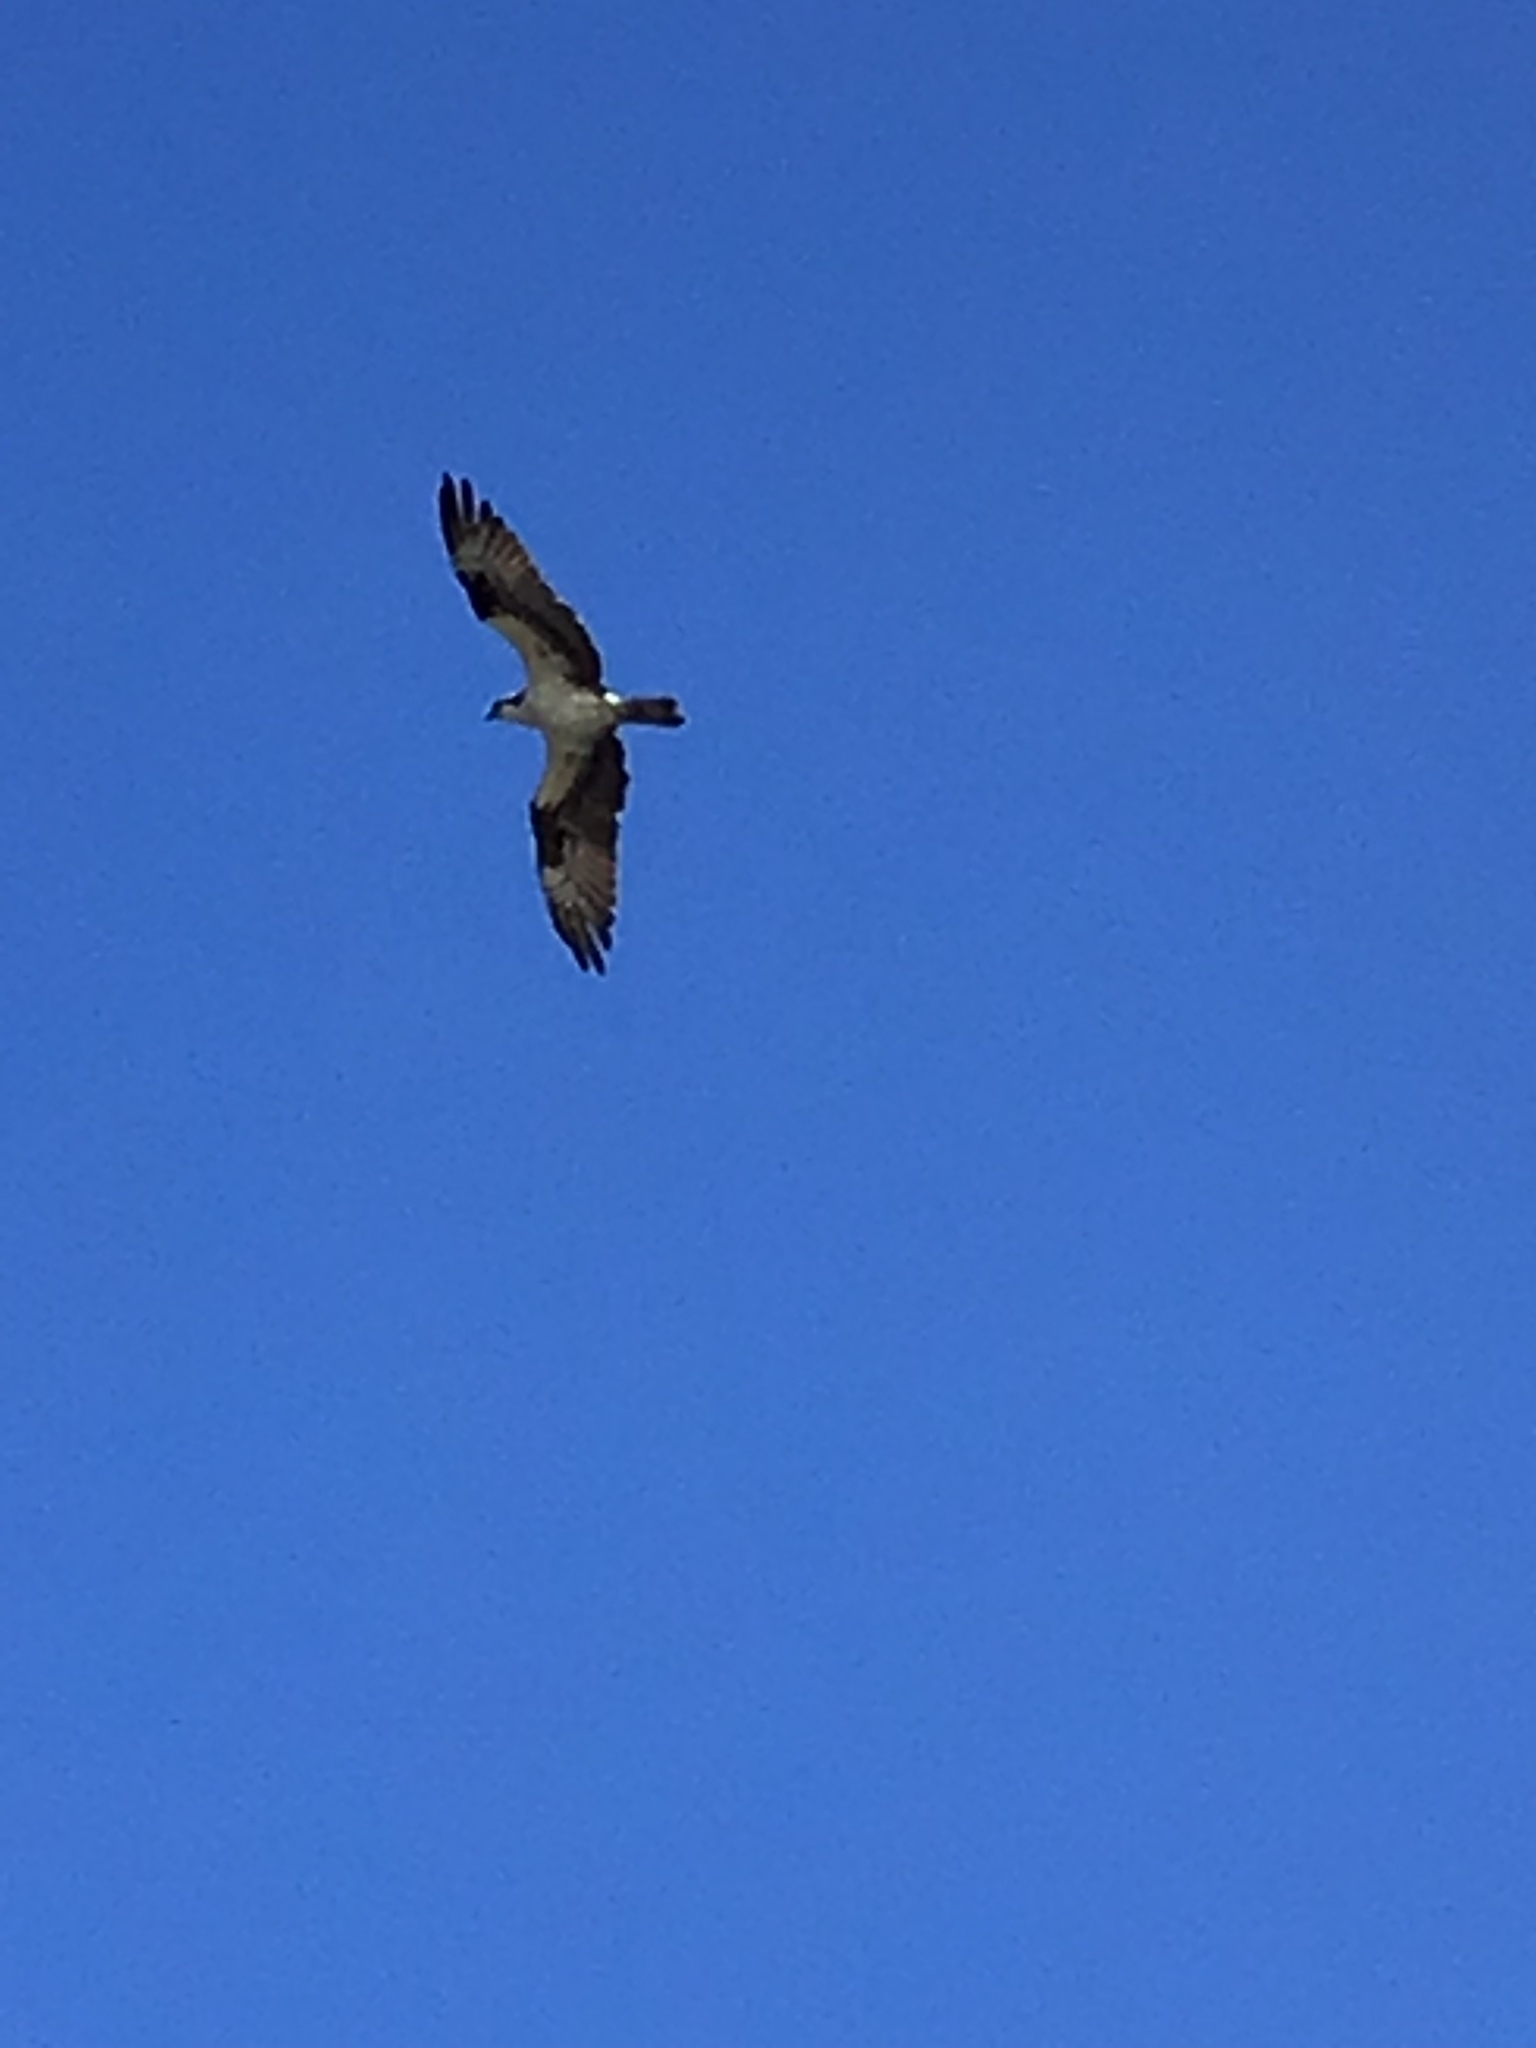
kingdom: Animalia
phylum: Chordata
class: Aves
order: Accipitriformes
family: Pandionidae
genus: Pandion
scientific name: Pandion haliaetus
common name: Osprey
